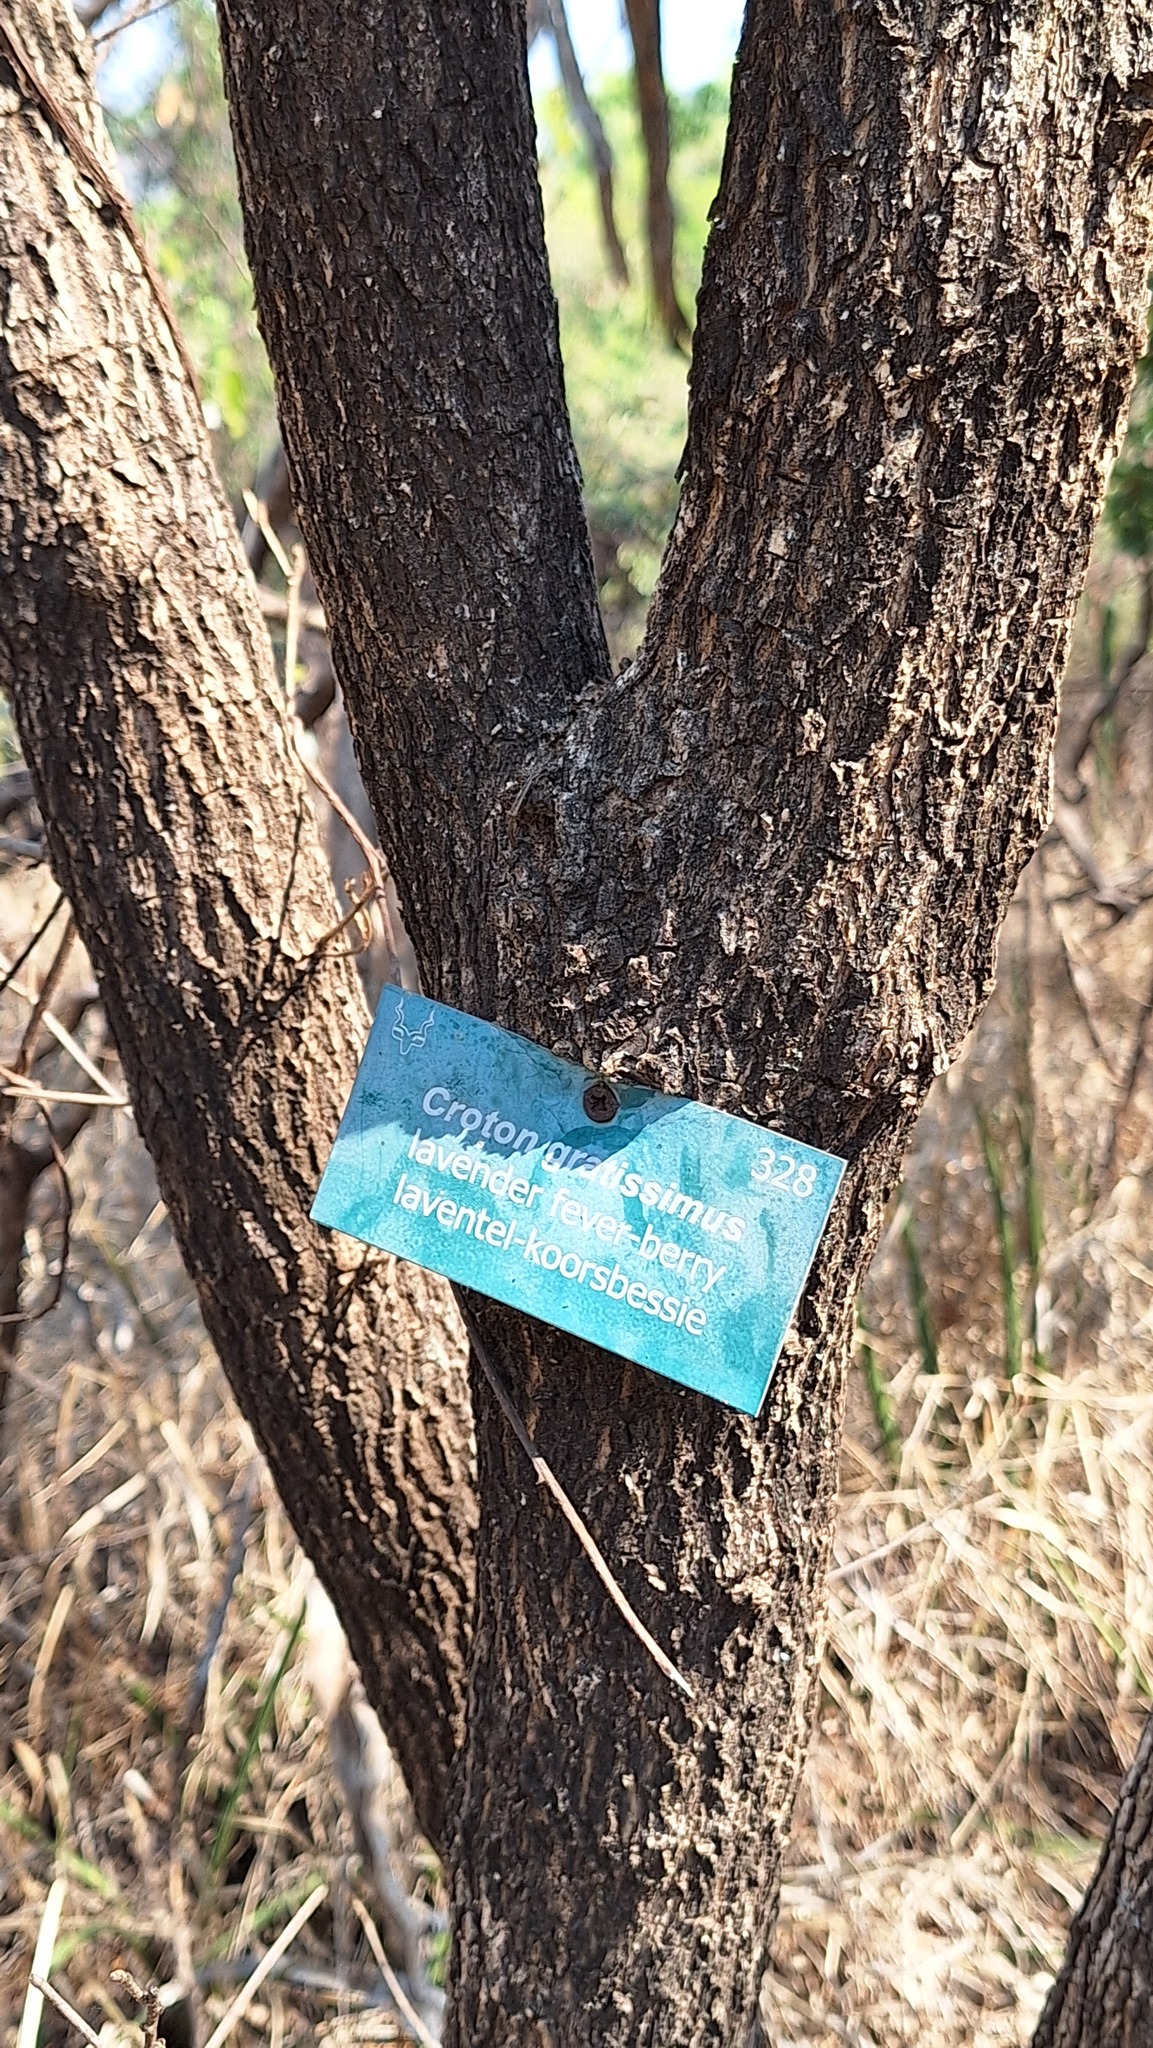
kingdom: Plantae
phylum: Tracheophyta
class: Magnoliopsida
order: Malpighiales
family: Euphorbiaceae
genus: Croton
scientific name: Croton gratissimus
